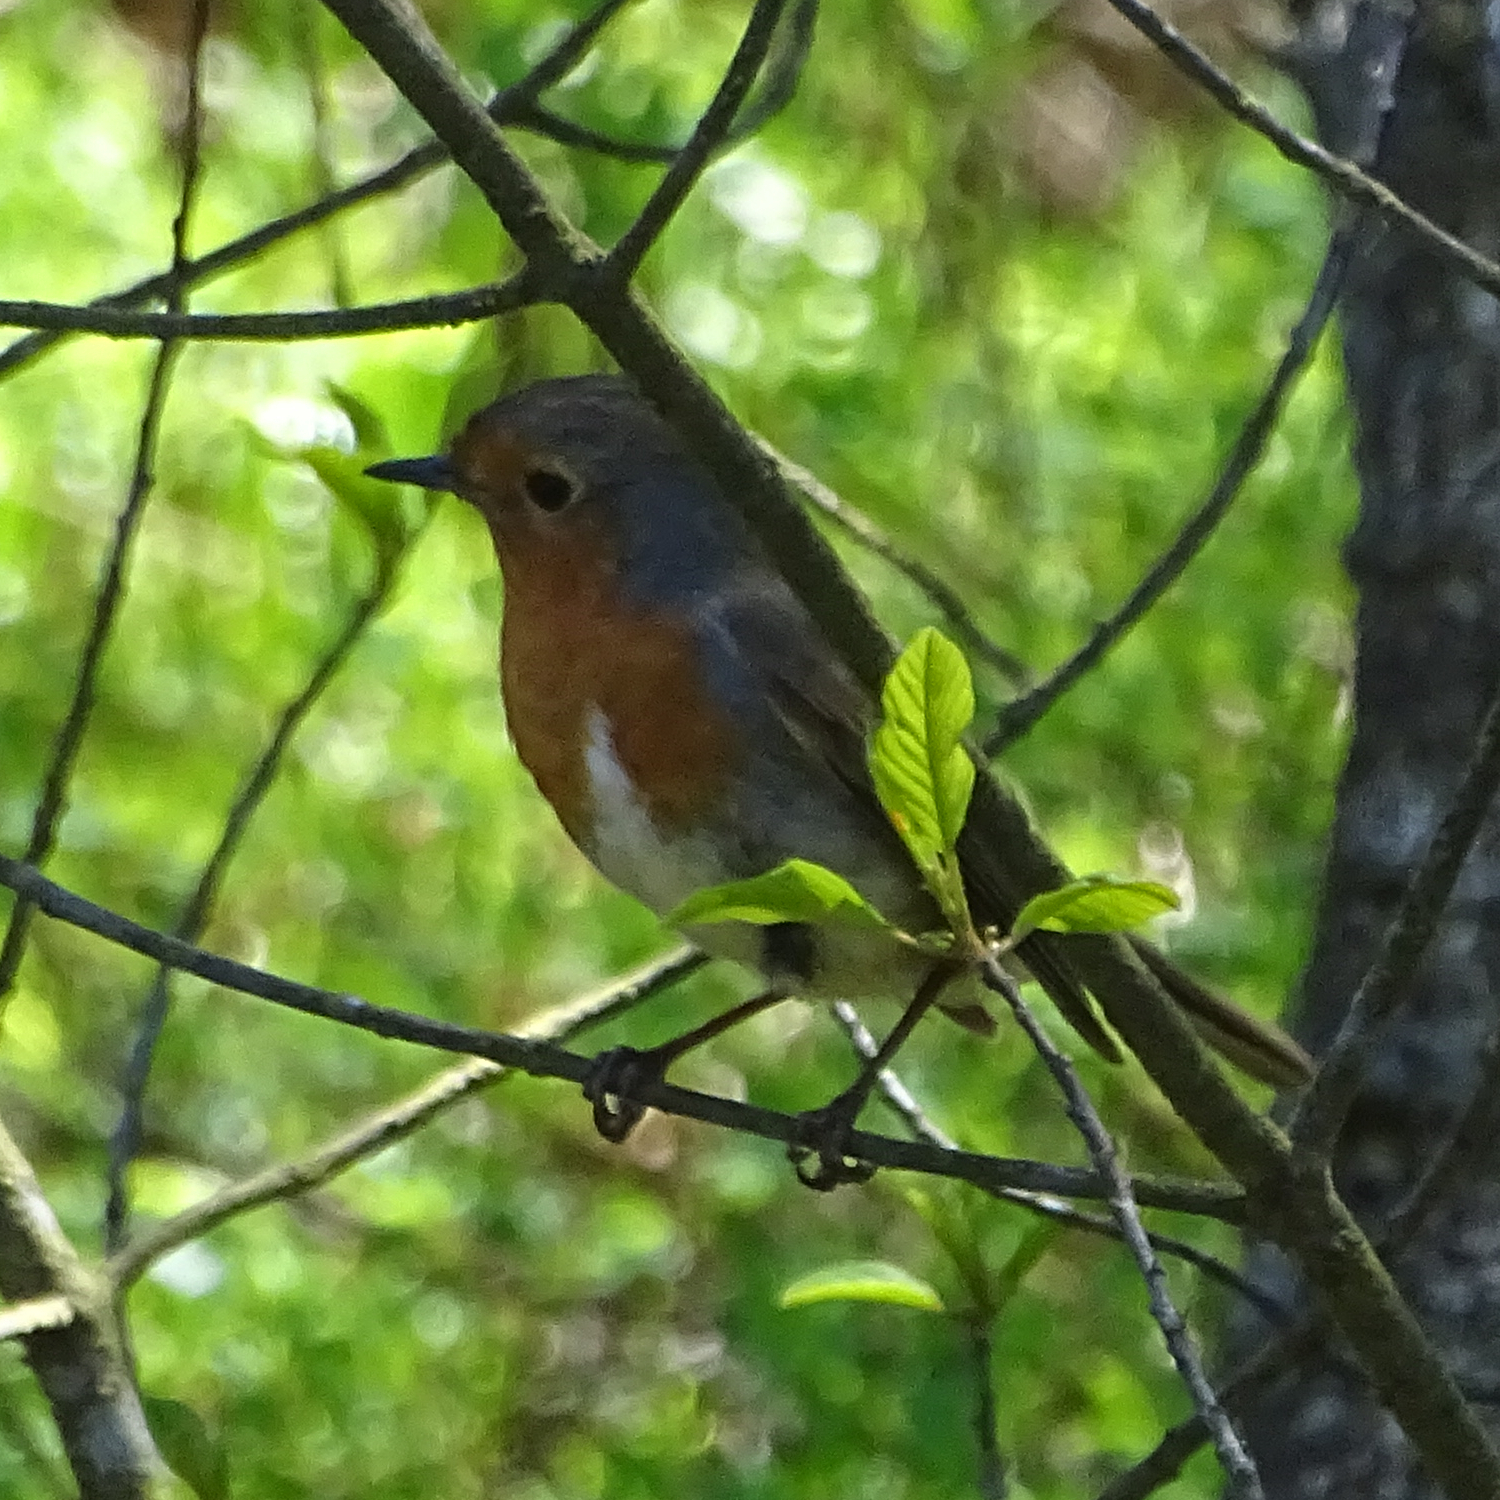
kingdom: Animalia
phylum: Chordata
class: Aves
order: Passeriformes
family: Muscicapidae
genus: Erithacus
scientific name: Erithacus rubecula
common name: European robin
